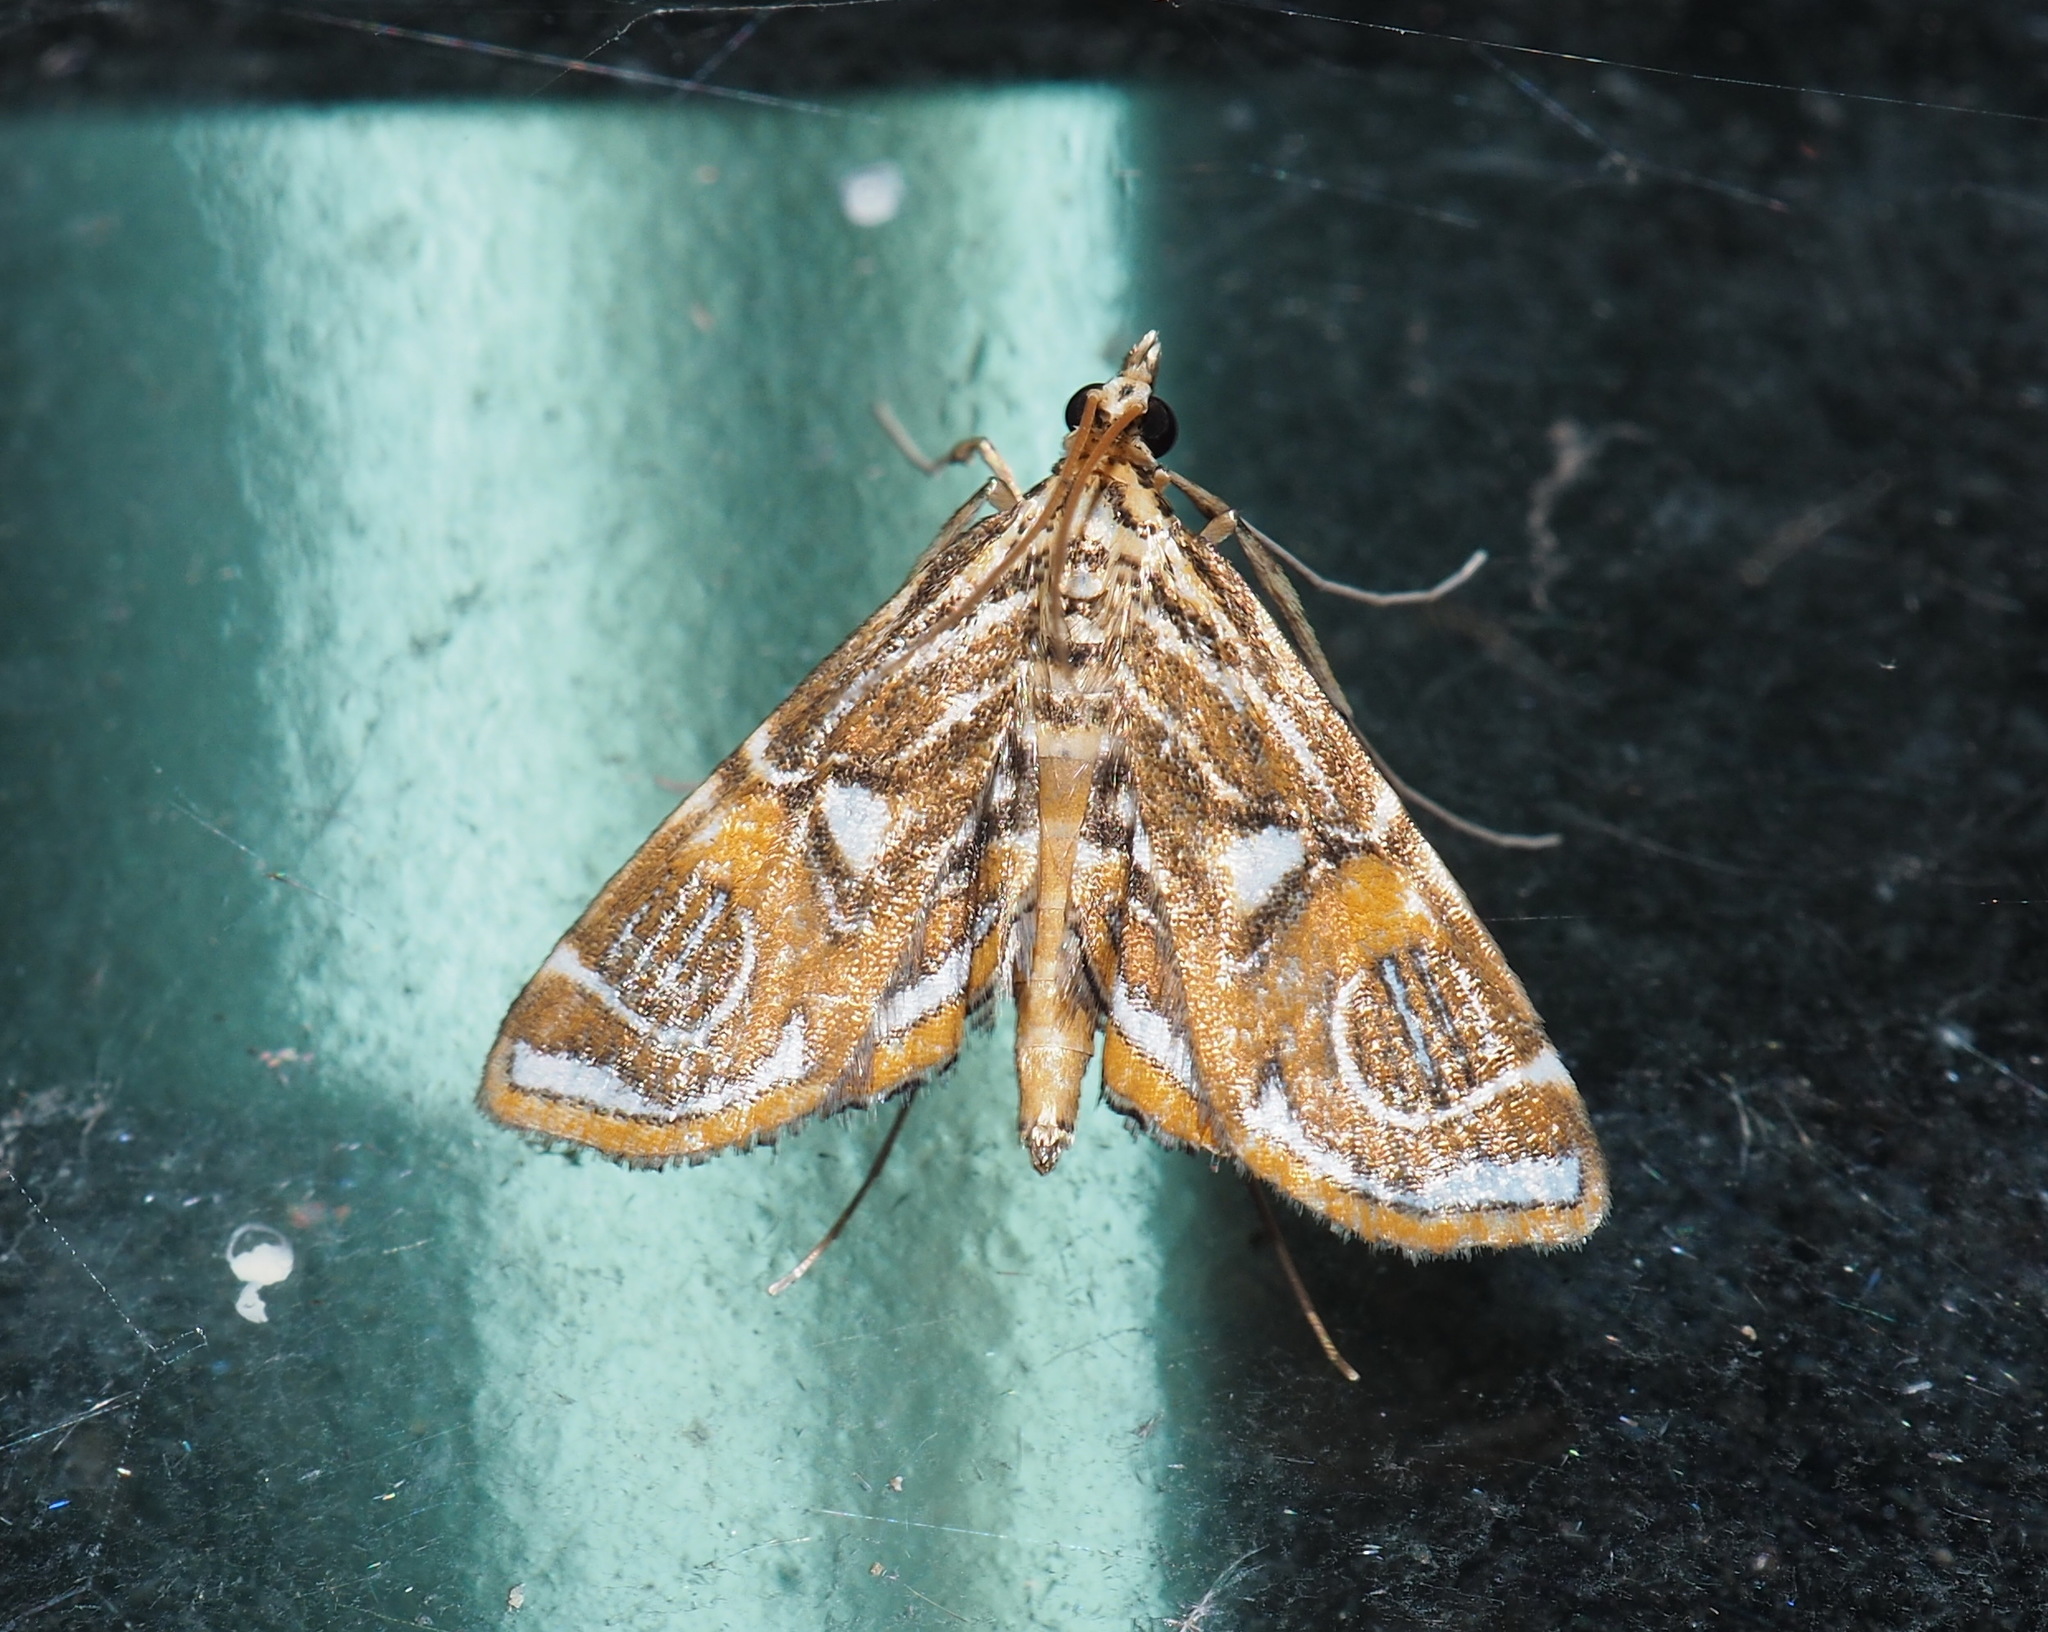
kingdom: Animalia
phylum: Arthropoda
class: Insecta
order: Lepidoptera
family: Crambidae
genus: Paracymoriza
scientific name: Paracymoriza cataclystalis
